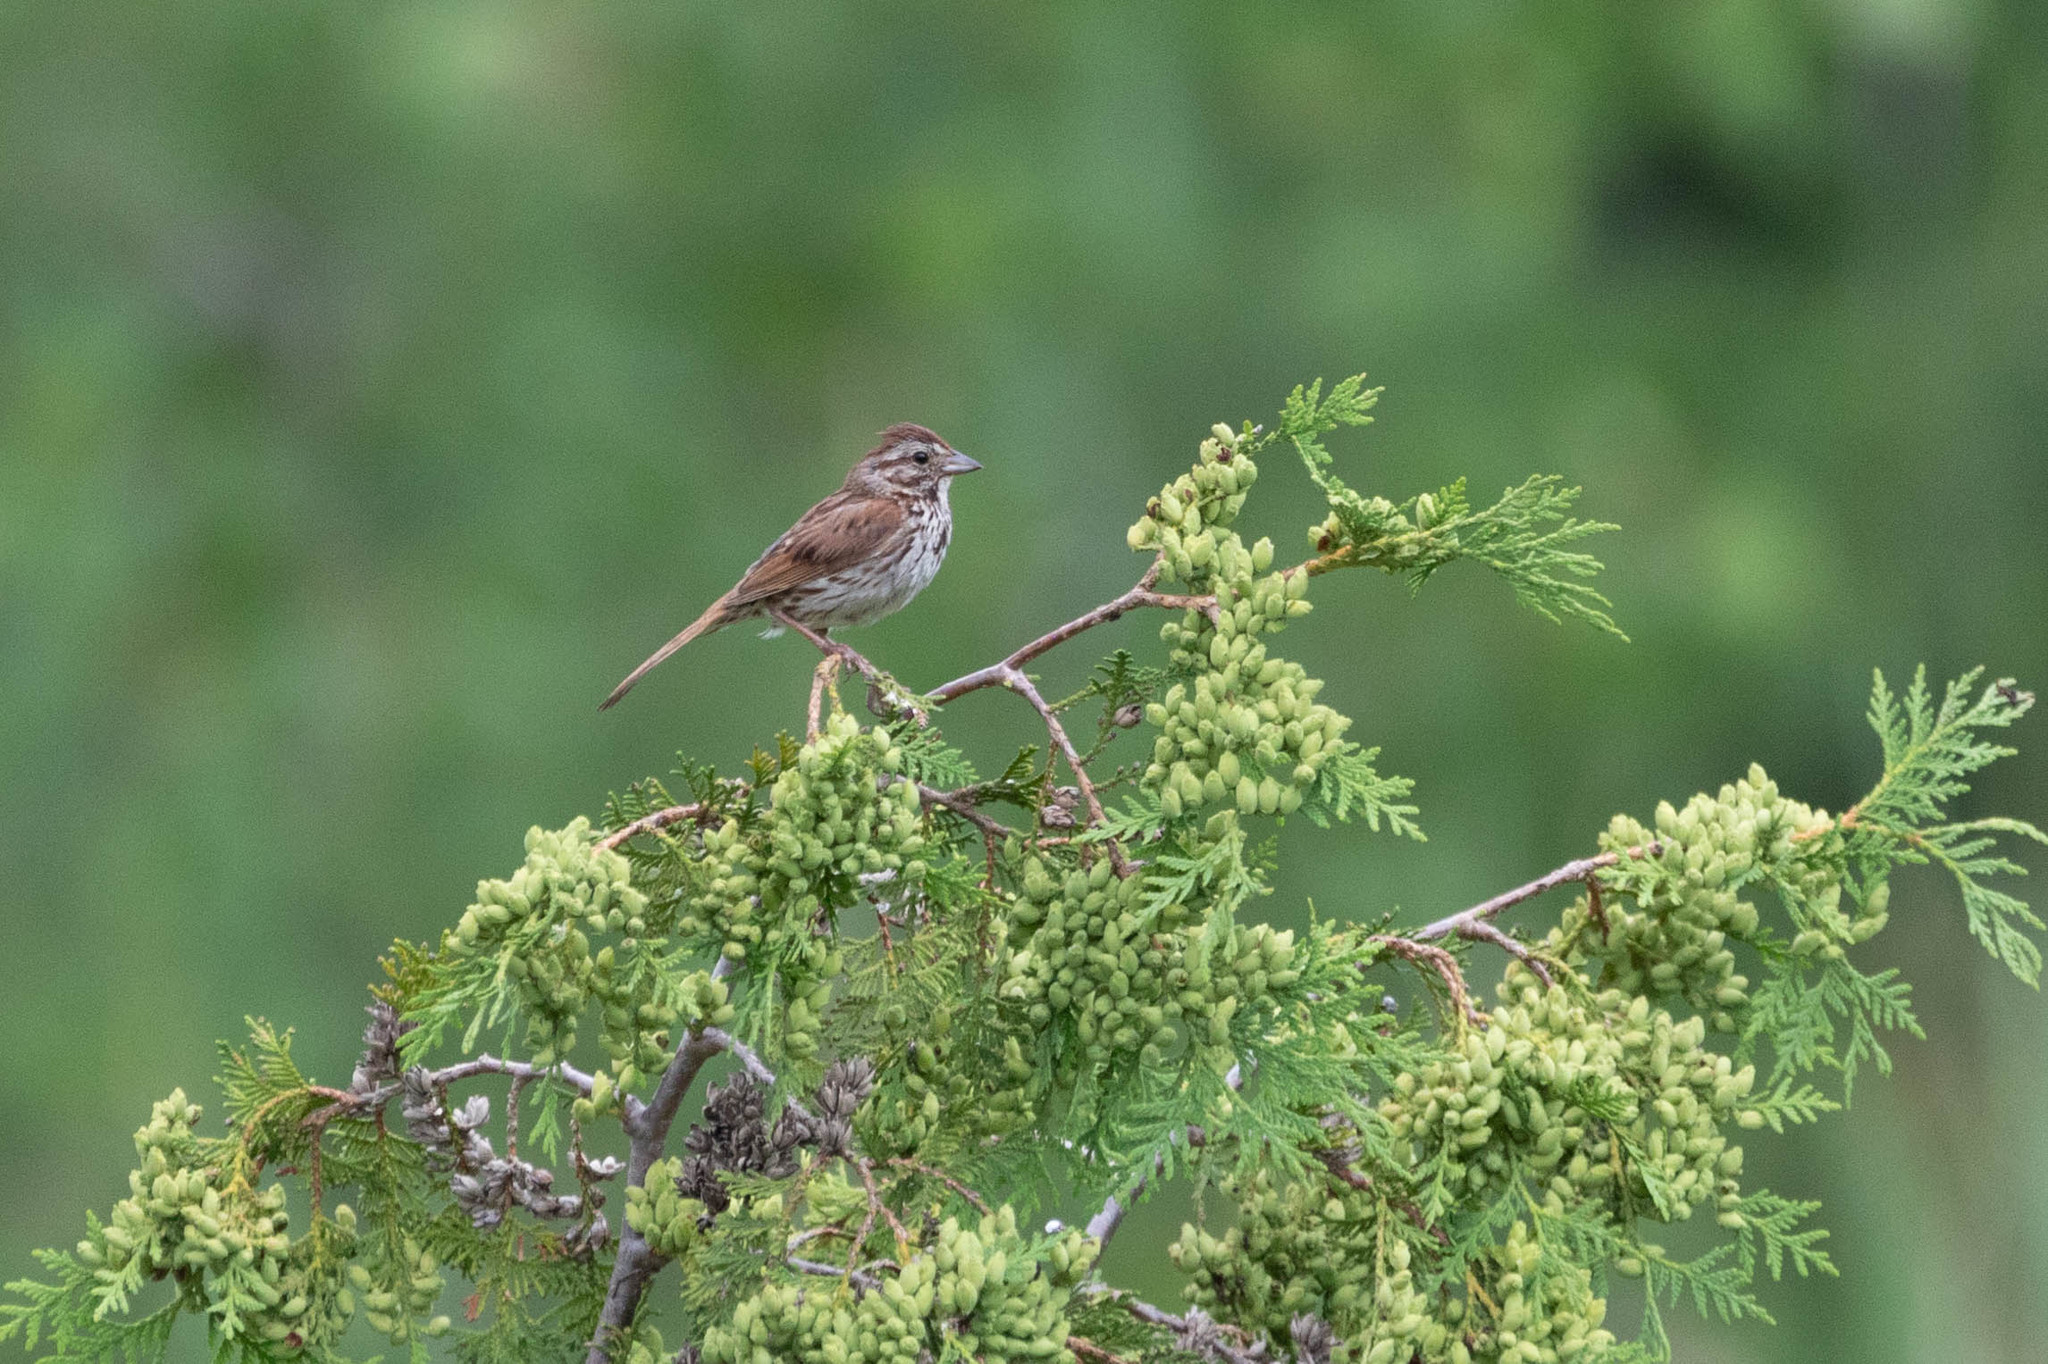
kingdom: Animalia
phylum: Chordata
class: Aves
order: Passeriformes
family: Passerellidae
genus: Melospiza
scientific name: Melospiza melodia
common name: Song sparrow
